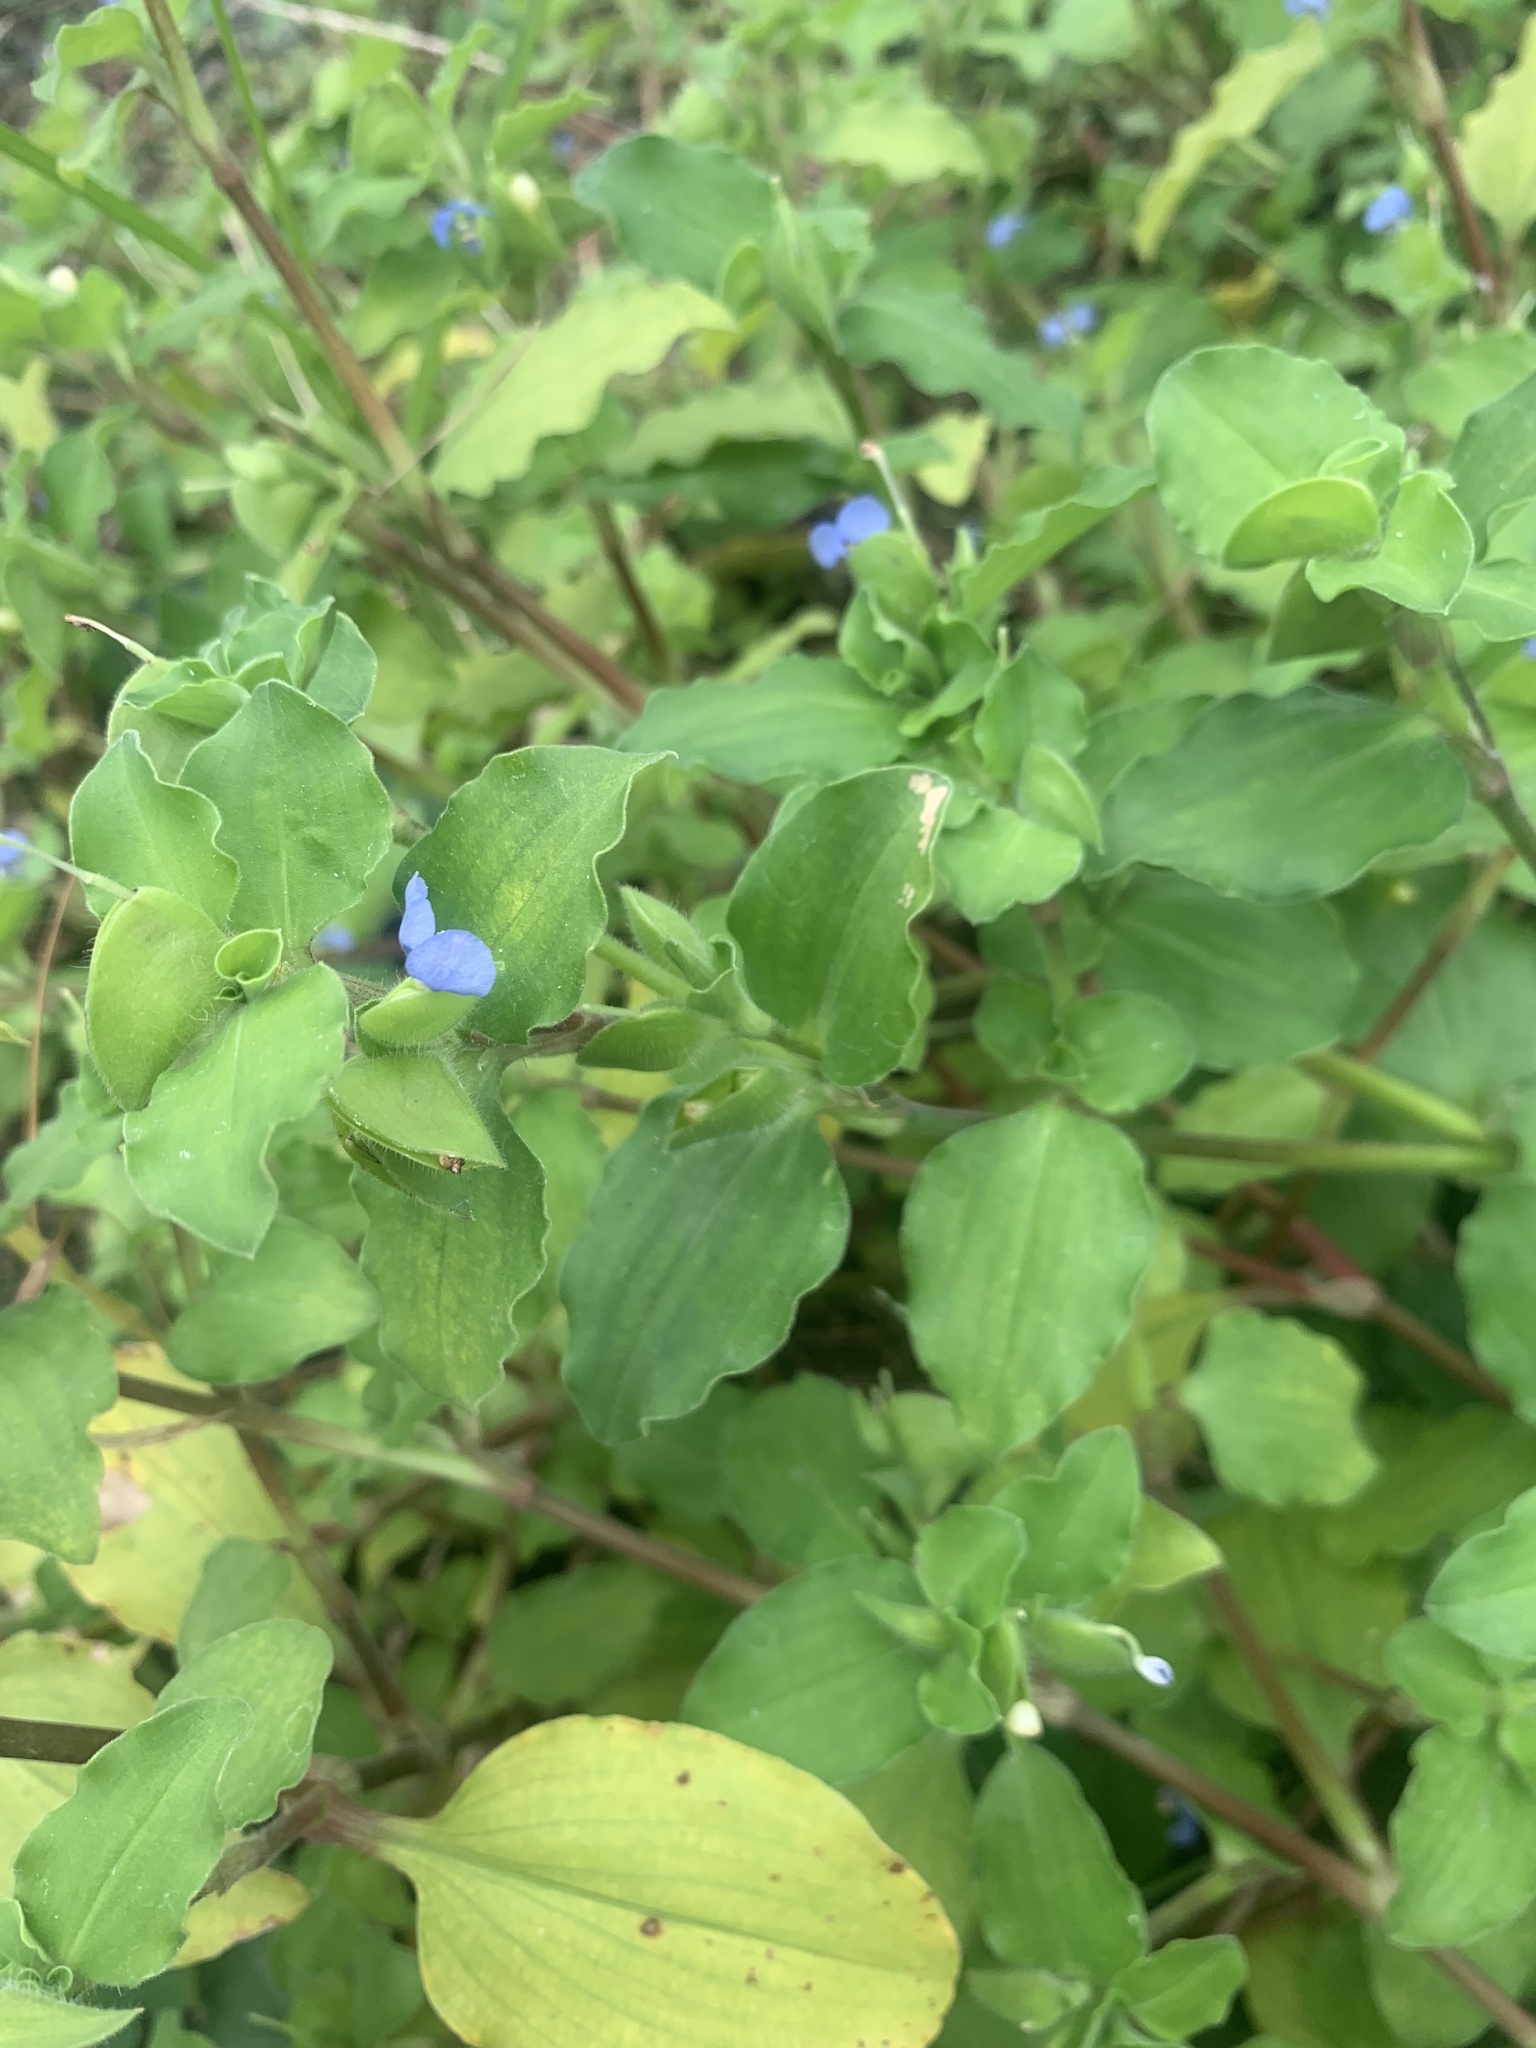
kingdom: Plantae
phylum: Tracheophyta
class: Liliopsida
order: Commelinales
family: Commelinaceae
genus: Commelina
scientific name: Commelina benghalensis
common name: Jio
